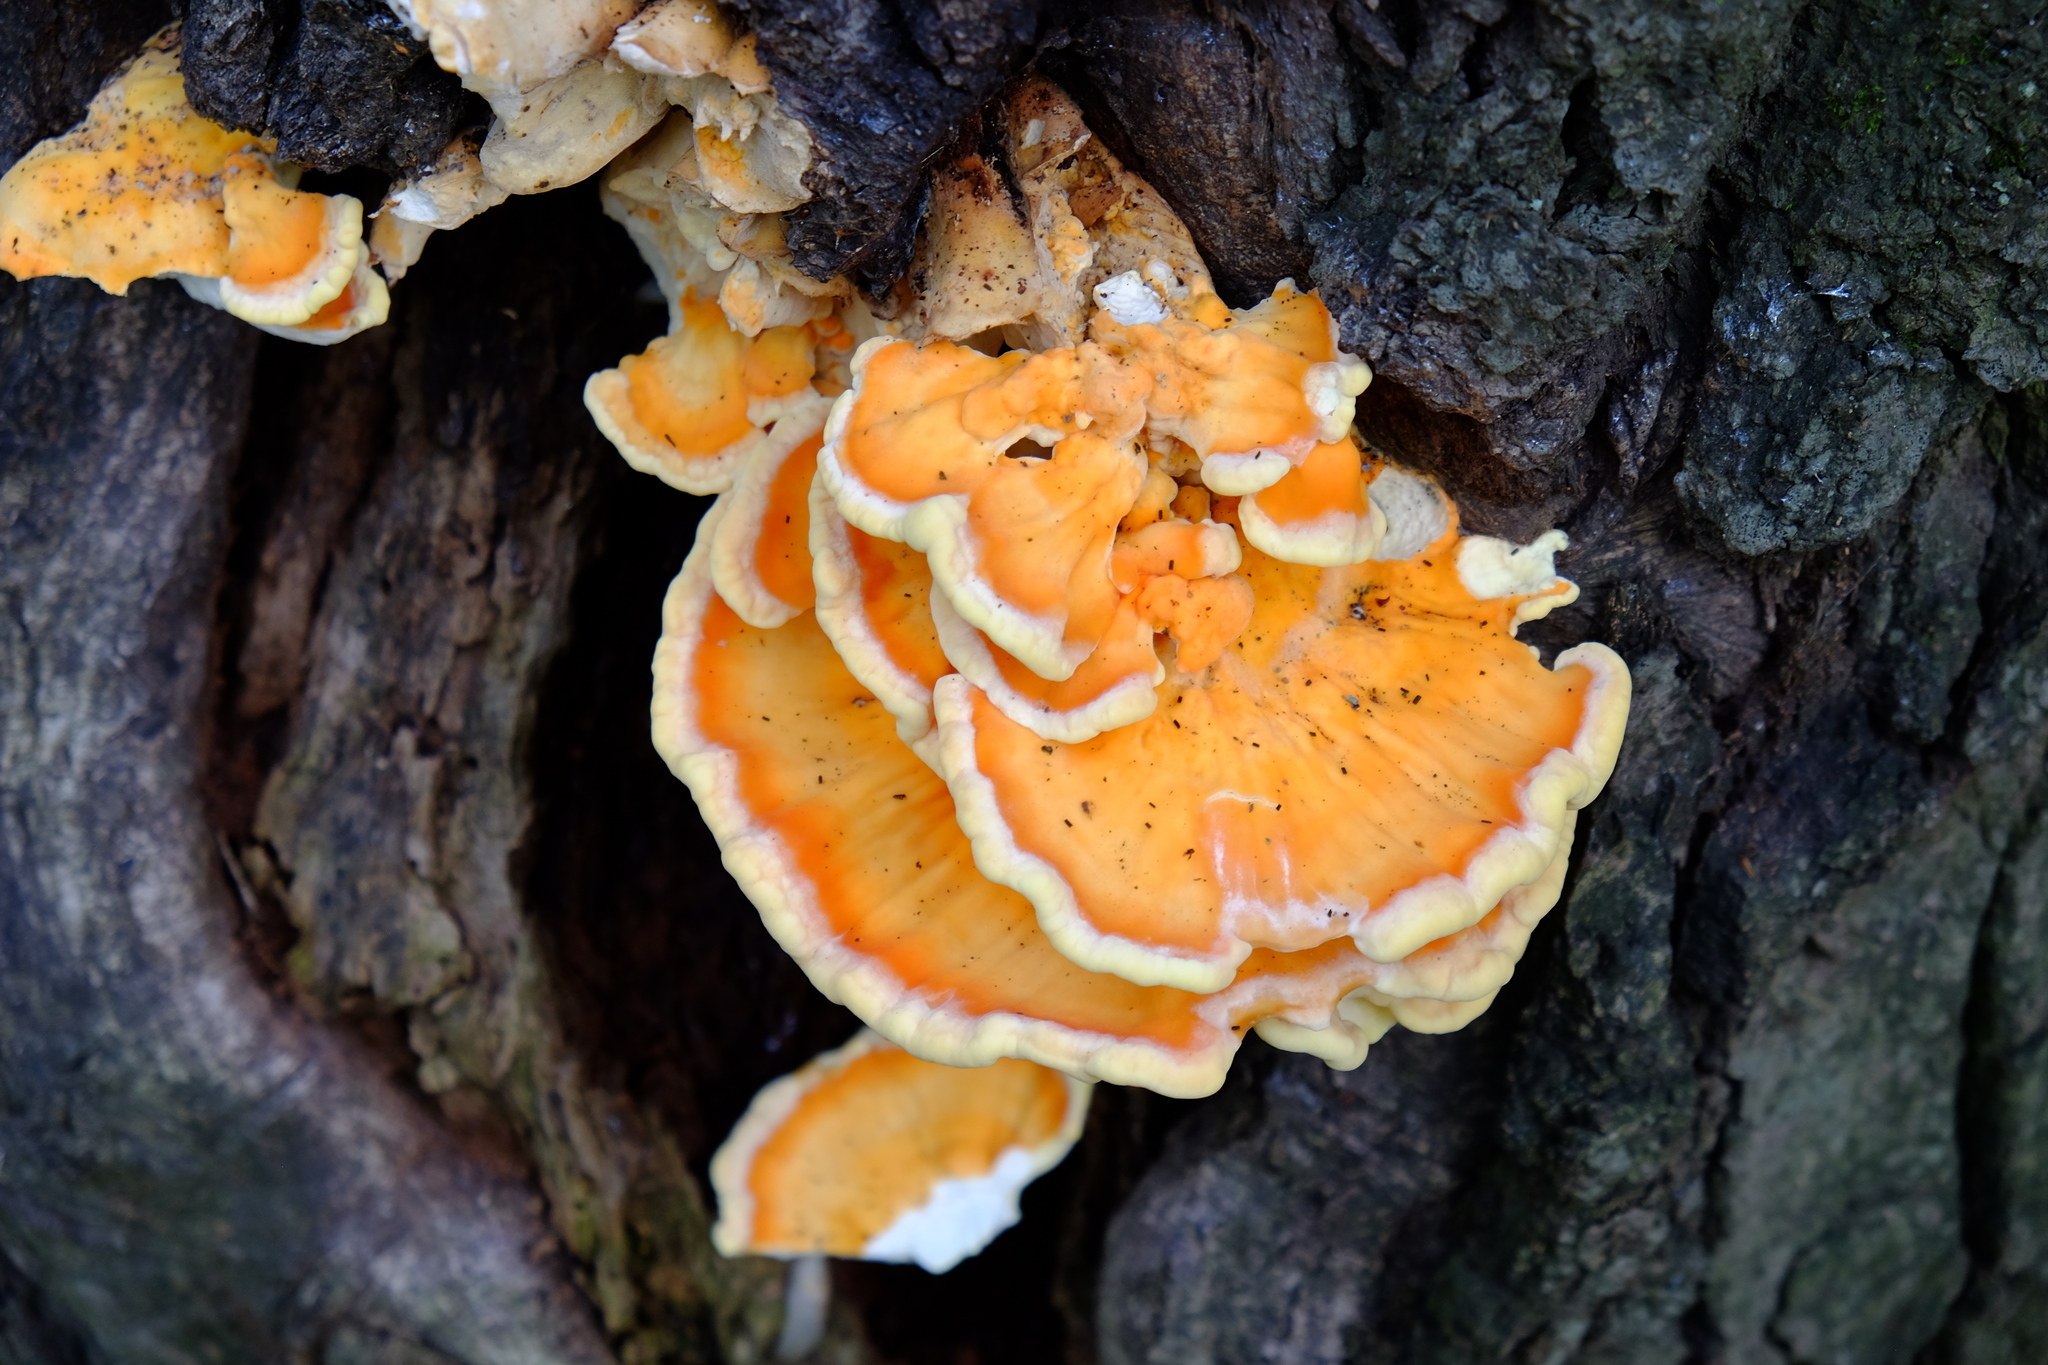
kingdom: Fungi
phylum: Basidiomycota
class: Agaricomycetes
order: Polyporales
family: Laetiporaceae
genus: Laetiporus
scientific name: Laetiporus sulphureus
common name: Chicken of the woods
